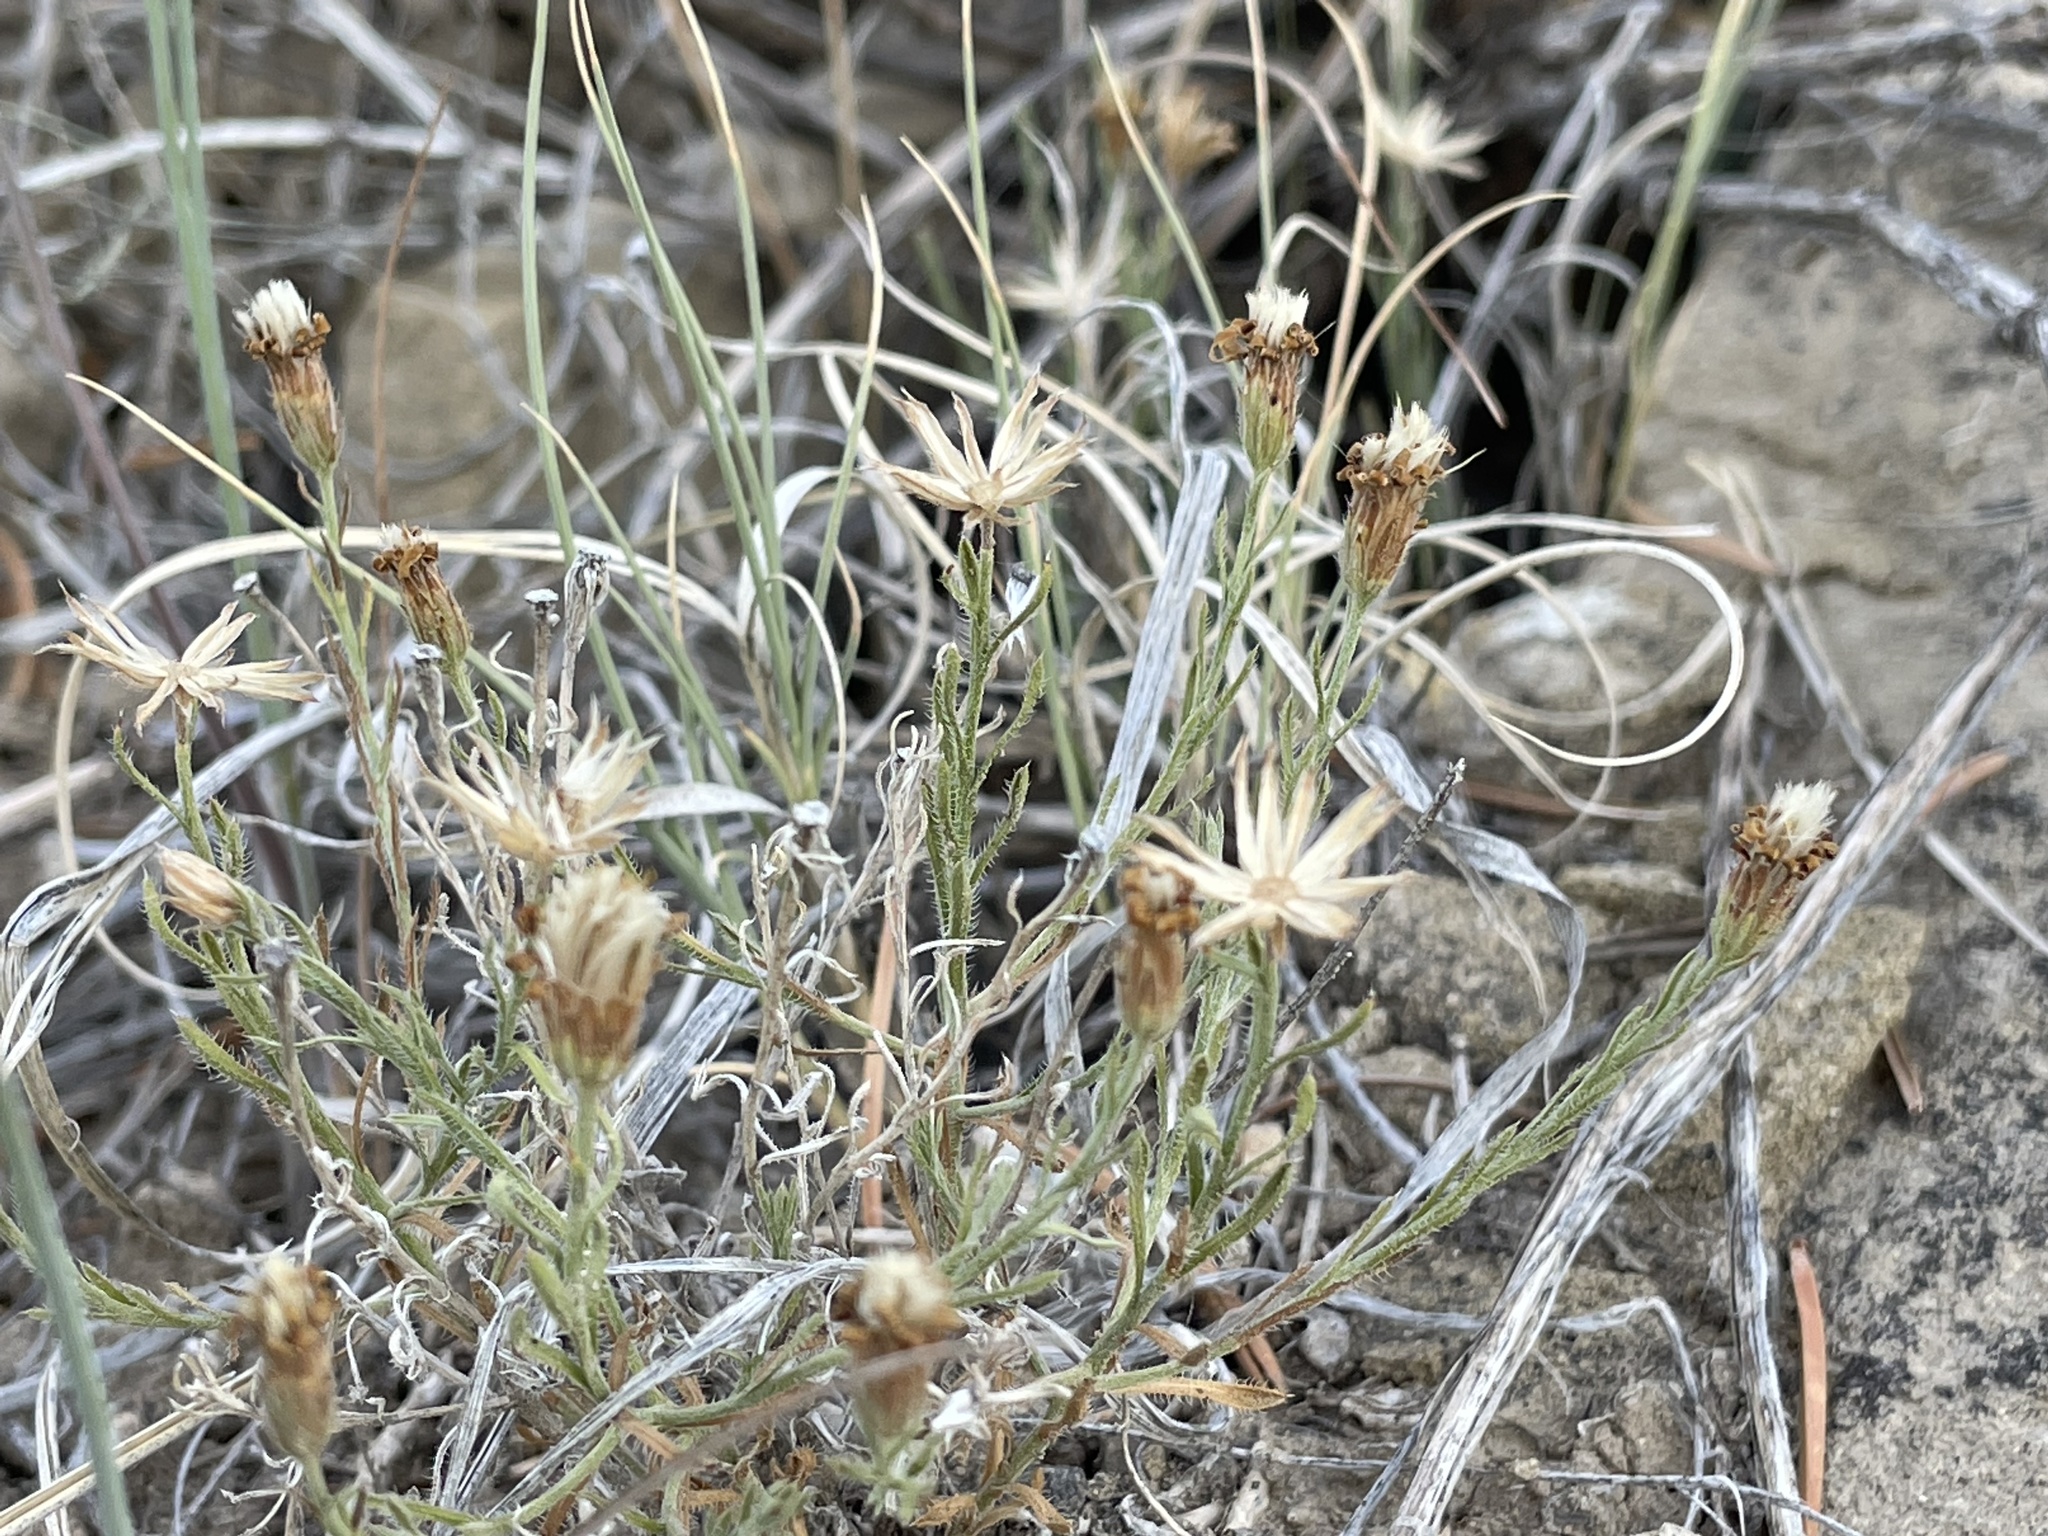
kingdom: Plantae
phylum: Tracheophyta
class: Magnoliopsida
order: Asterales
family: Asteraceae
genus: Chaetopappa
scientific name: Chaetopappa ericoides
